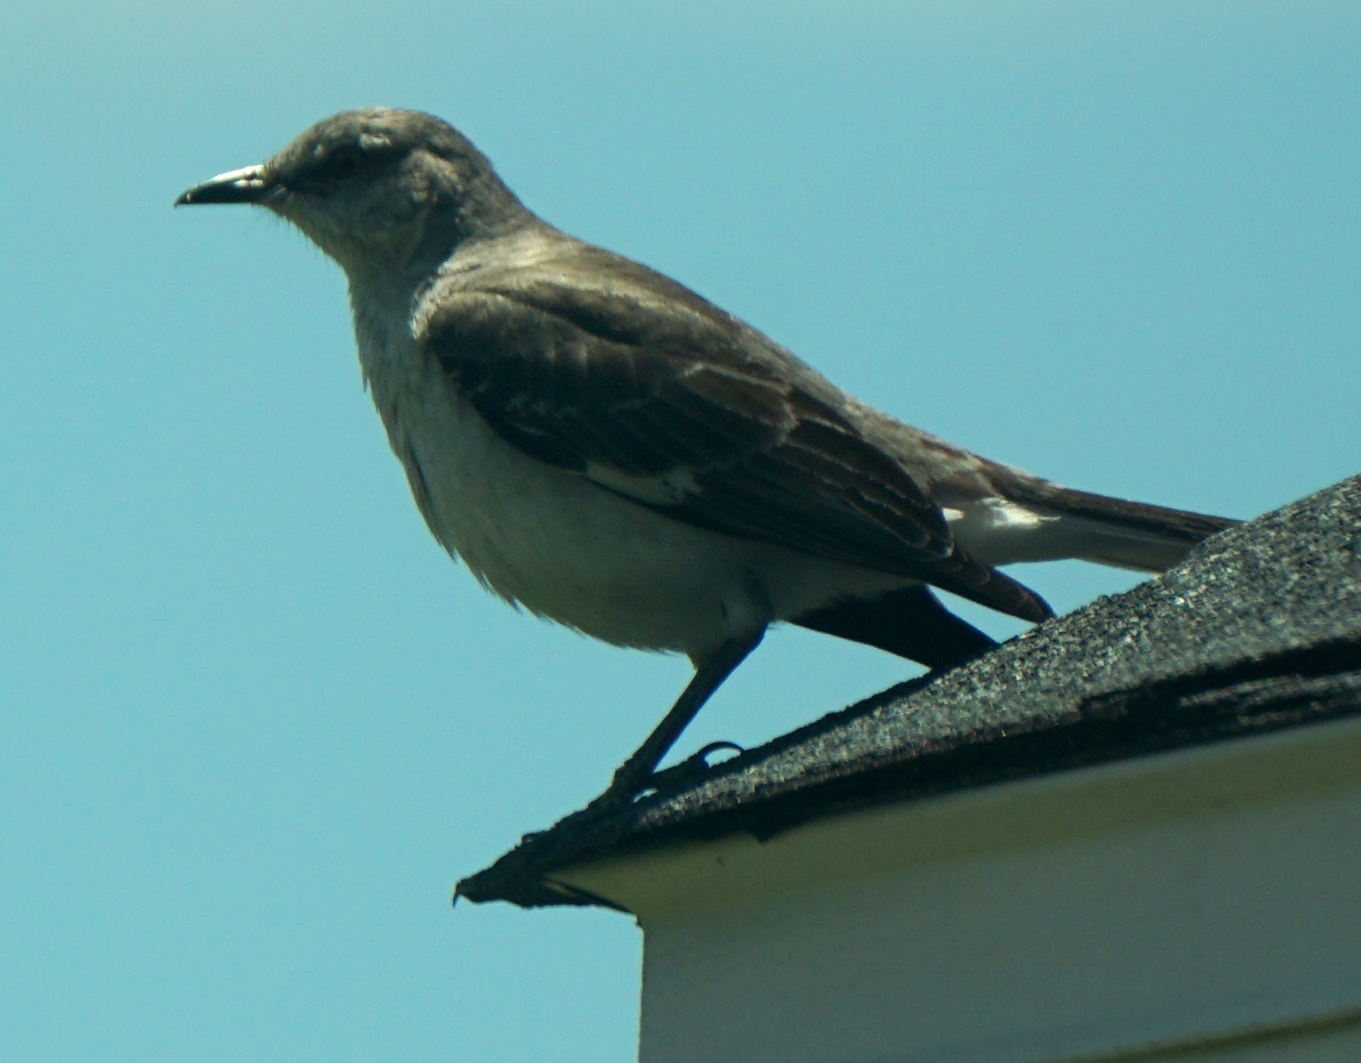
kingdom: Animalia
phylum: Chordata
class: Aves
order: Passeriformes
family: Mimidae
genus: Mimus
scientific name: Mimus polyglottos
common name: Northern mockingbird
